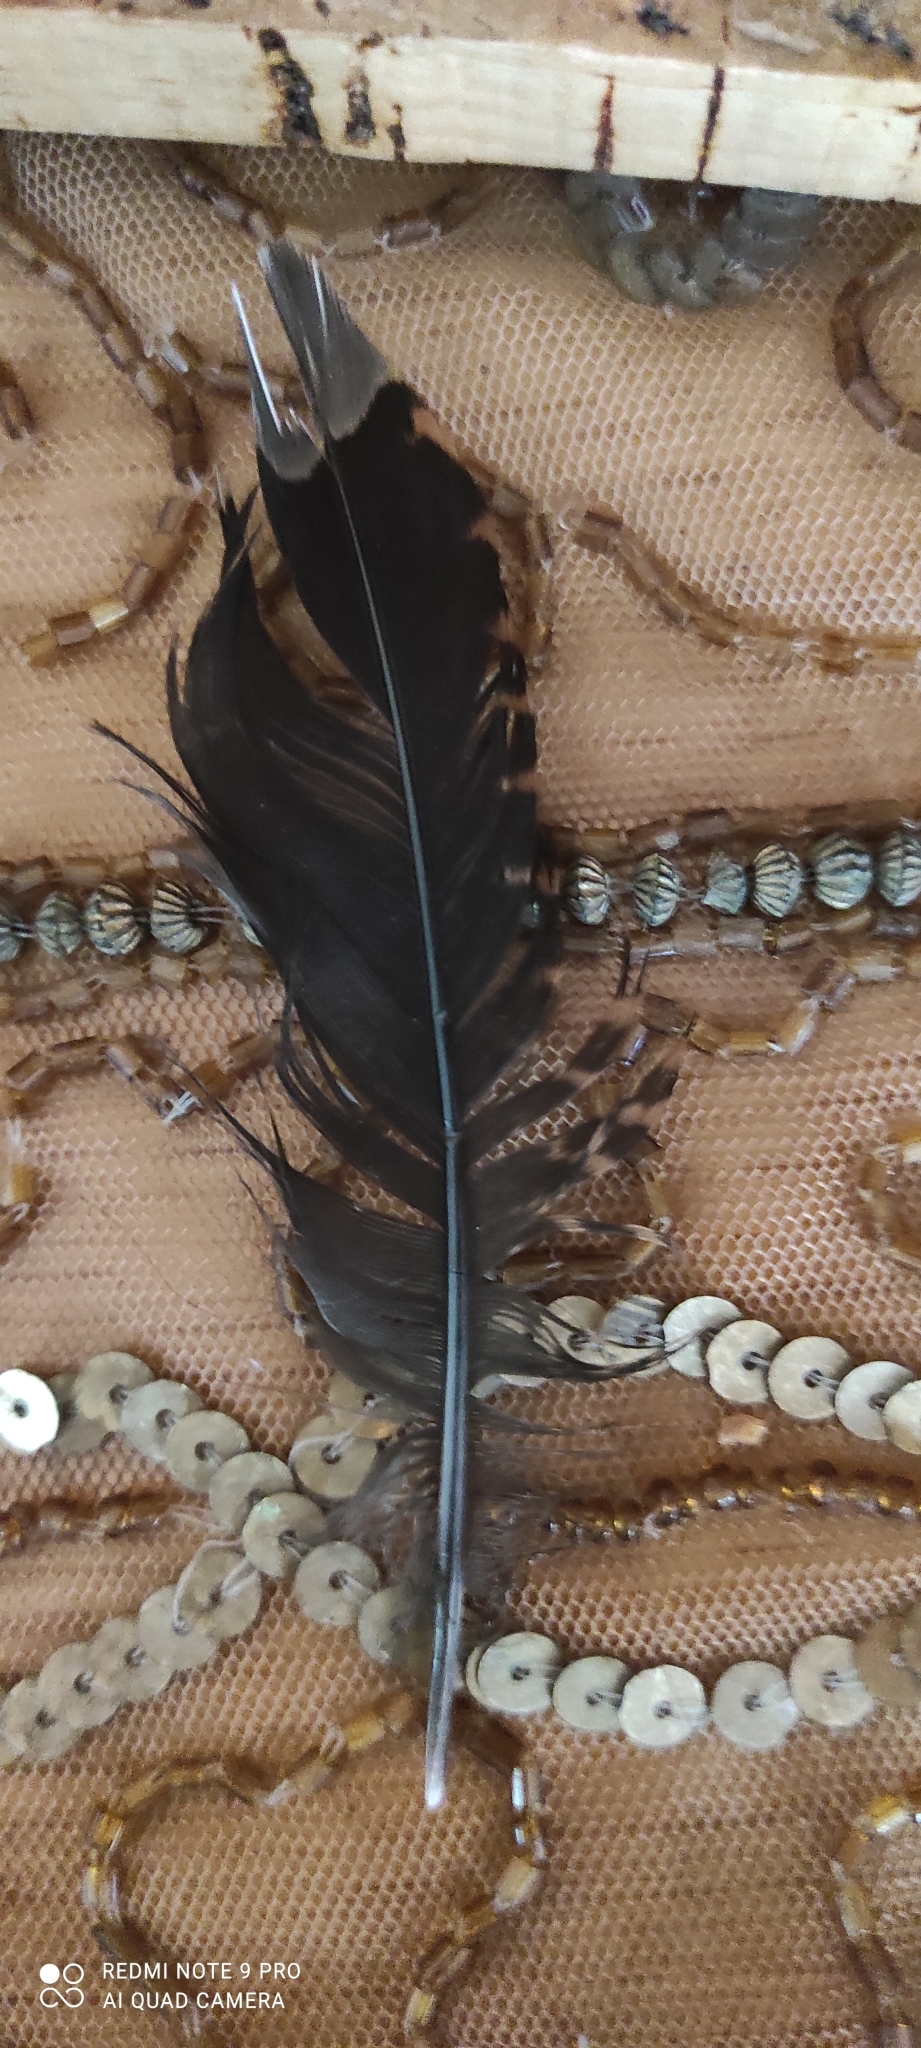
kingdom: Animalia
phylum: Chordata
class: Aves
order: Charadriiformes
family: Scolopacidae
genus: Scolopax
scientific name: Scolopax rusticola
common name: Eurasian woodcock
